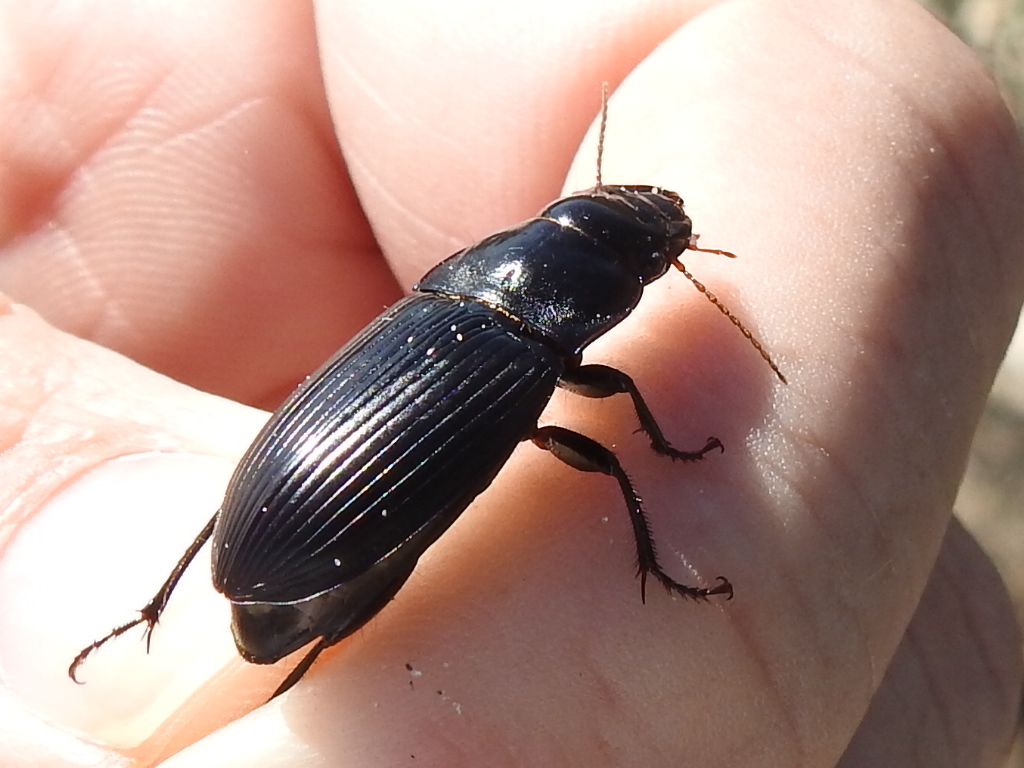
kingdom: Animalia
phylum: Arthropoda
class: Insecta
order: Coleoptera
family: Carabidae
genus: Harpalus
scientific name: Harpalus caliginosus
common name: Murky ground beetle
